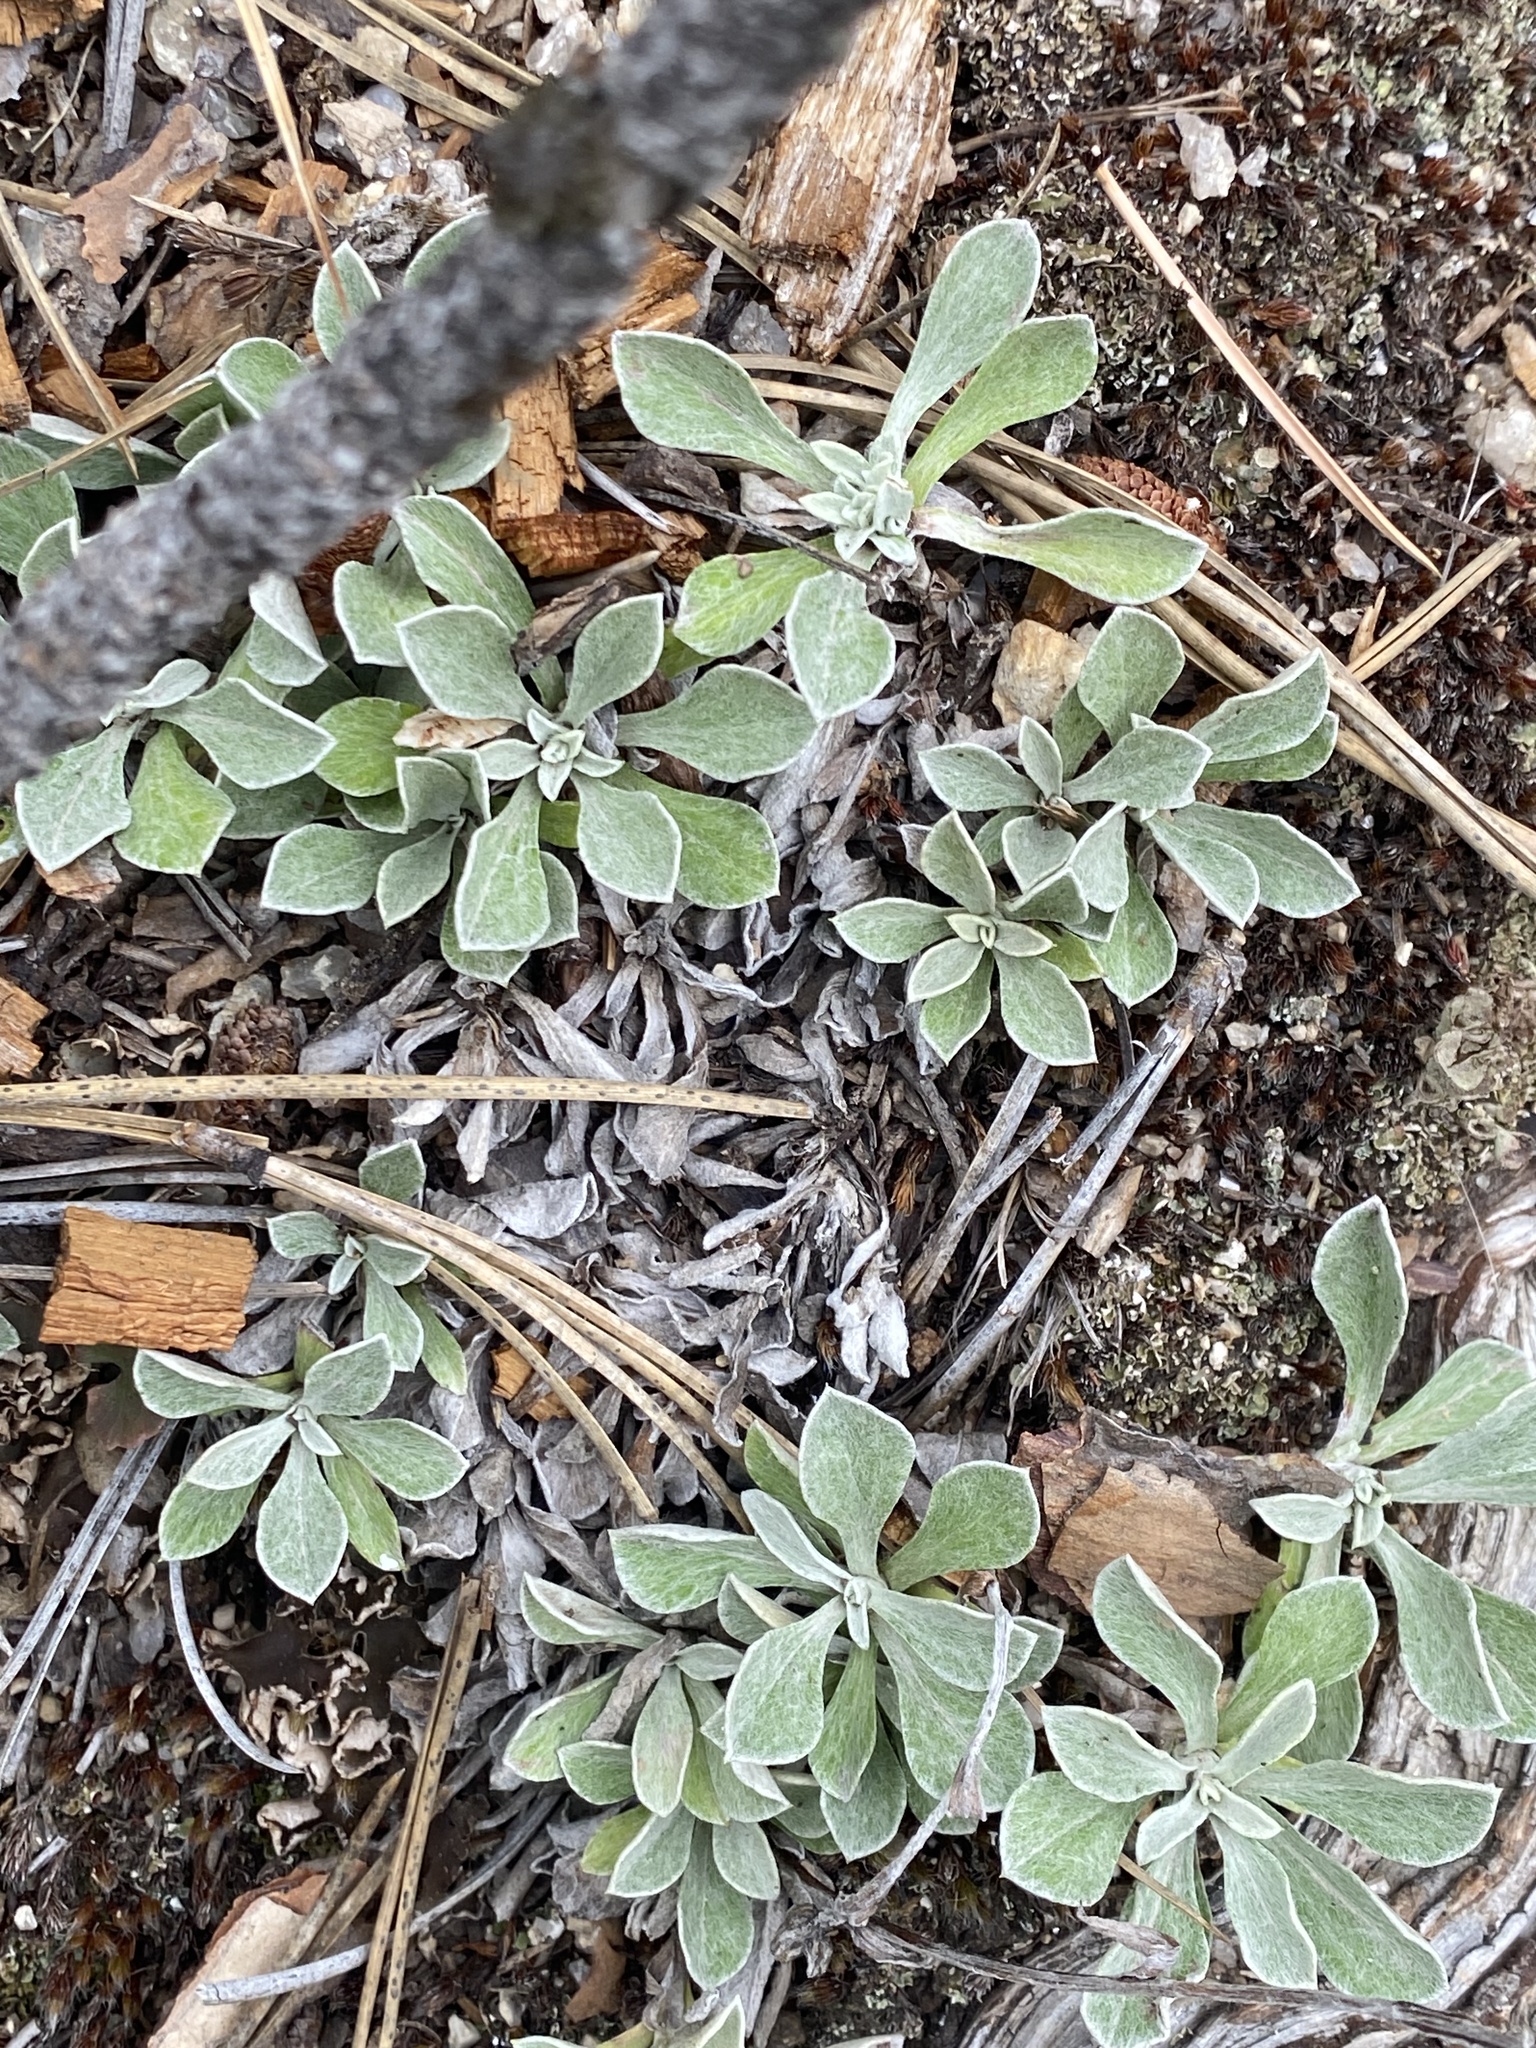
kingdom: Plantae
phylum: Tracheophyta
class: Magnoliopsida
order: Asterales
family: Asteraceae
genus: Antennaria
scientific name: Antennaria howellii
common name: Howell's pussytoes
